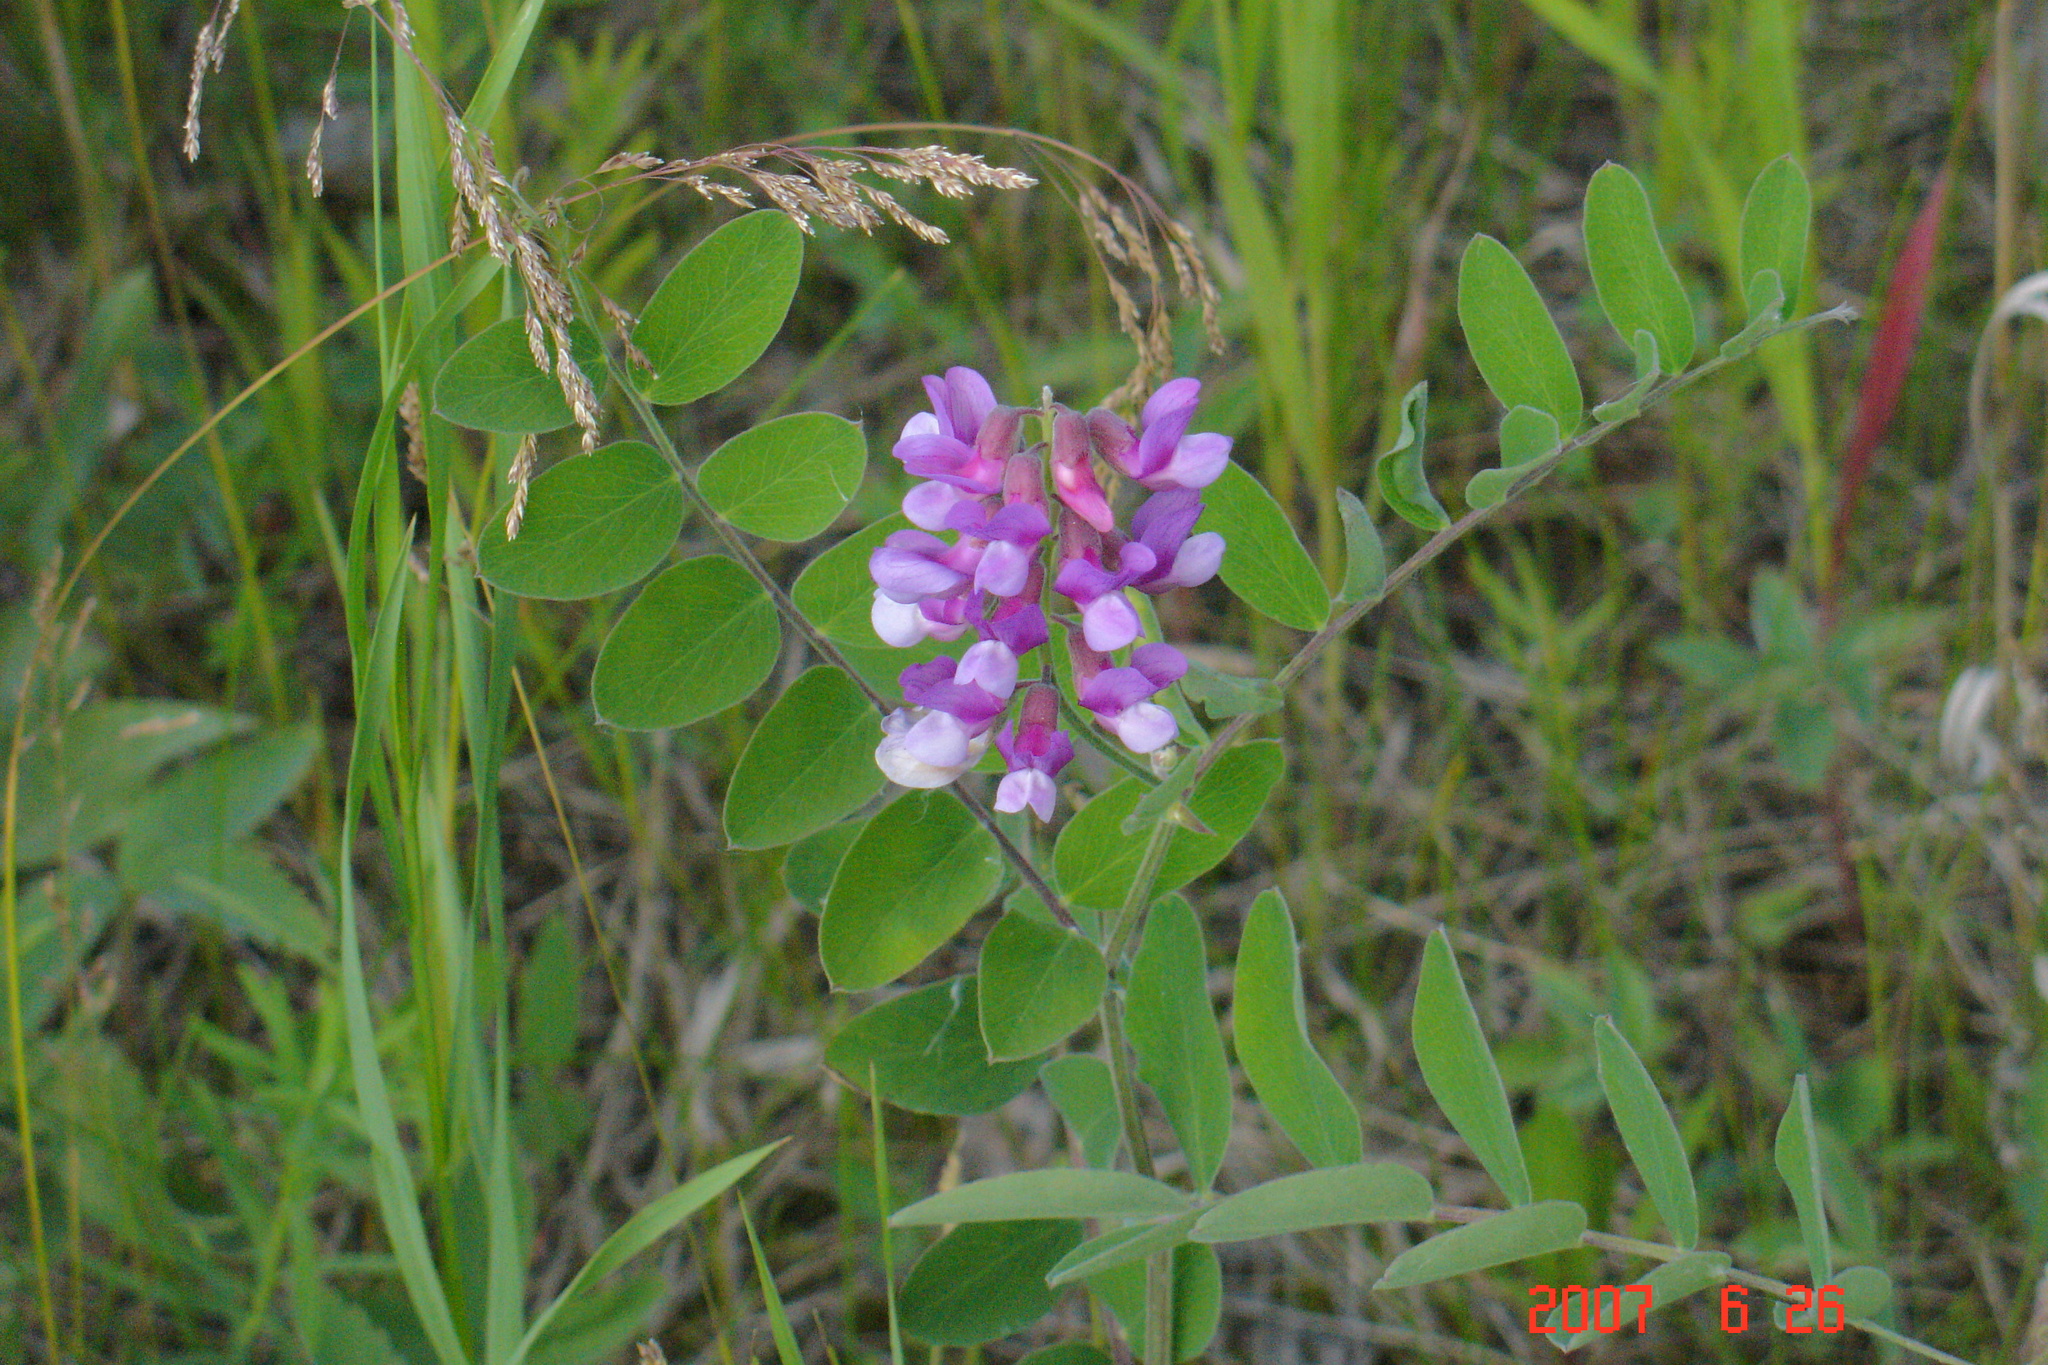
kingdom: Plantae
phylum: Tracheophyta
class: Magnoliopsida
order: Fabales
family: Fabaceae
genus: Lathyrus
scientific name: Lathyrus venosus
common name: Forest-pea
